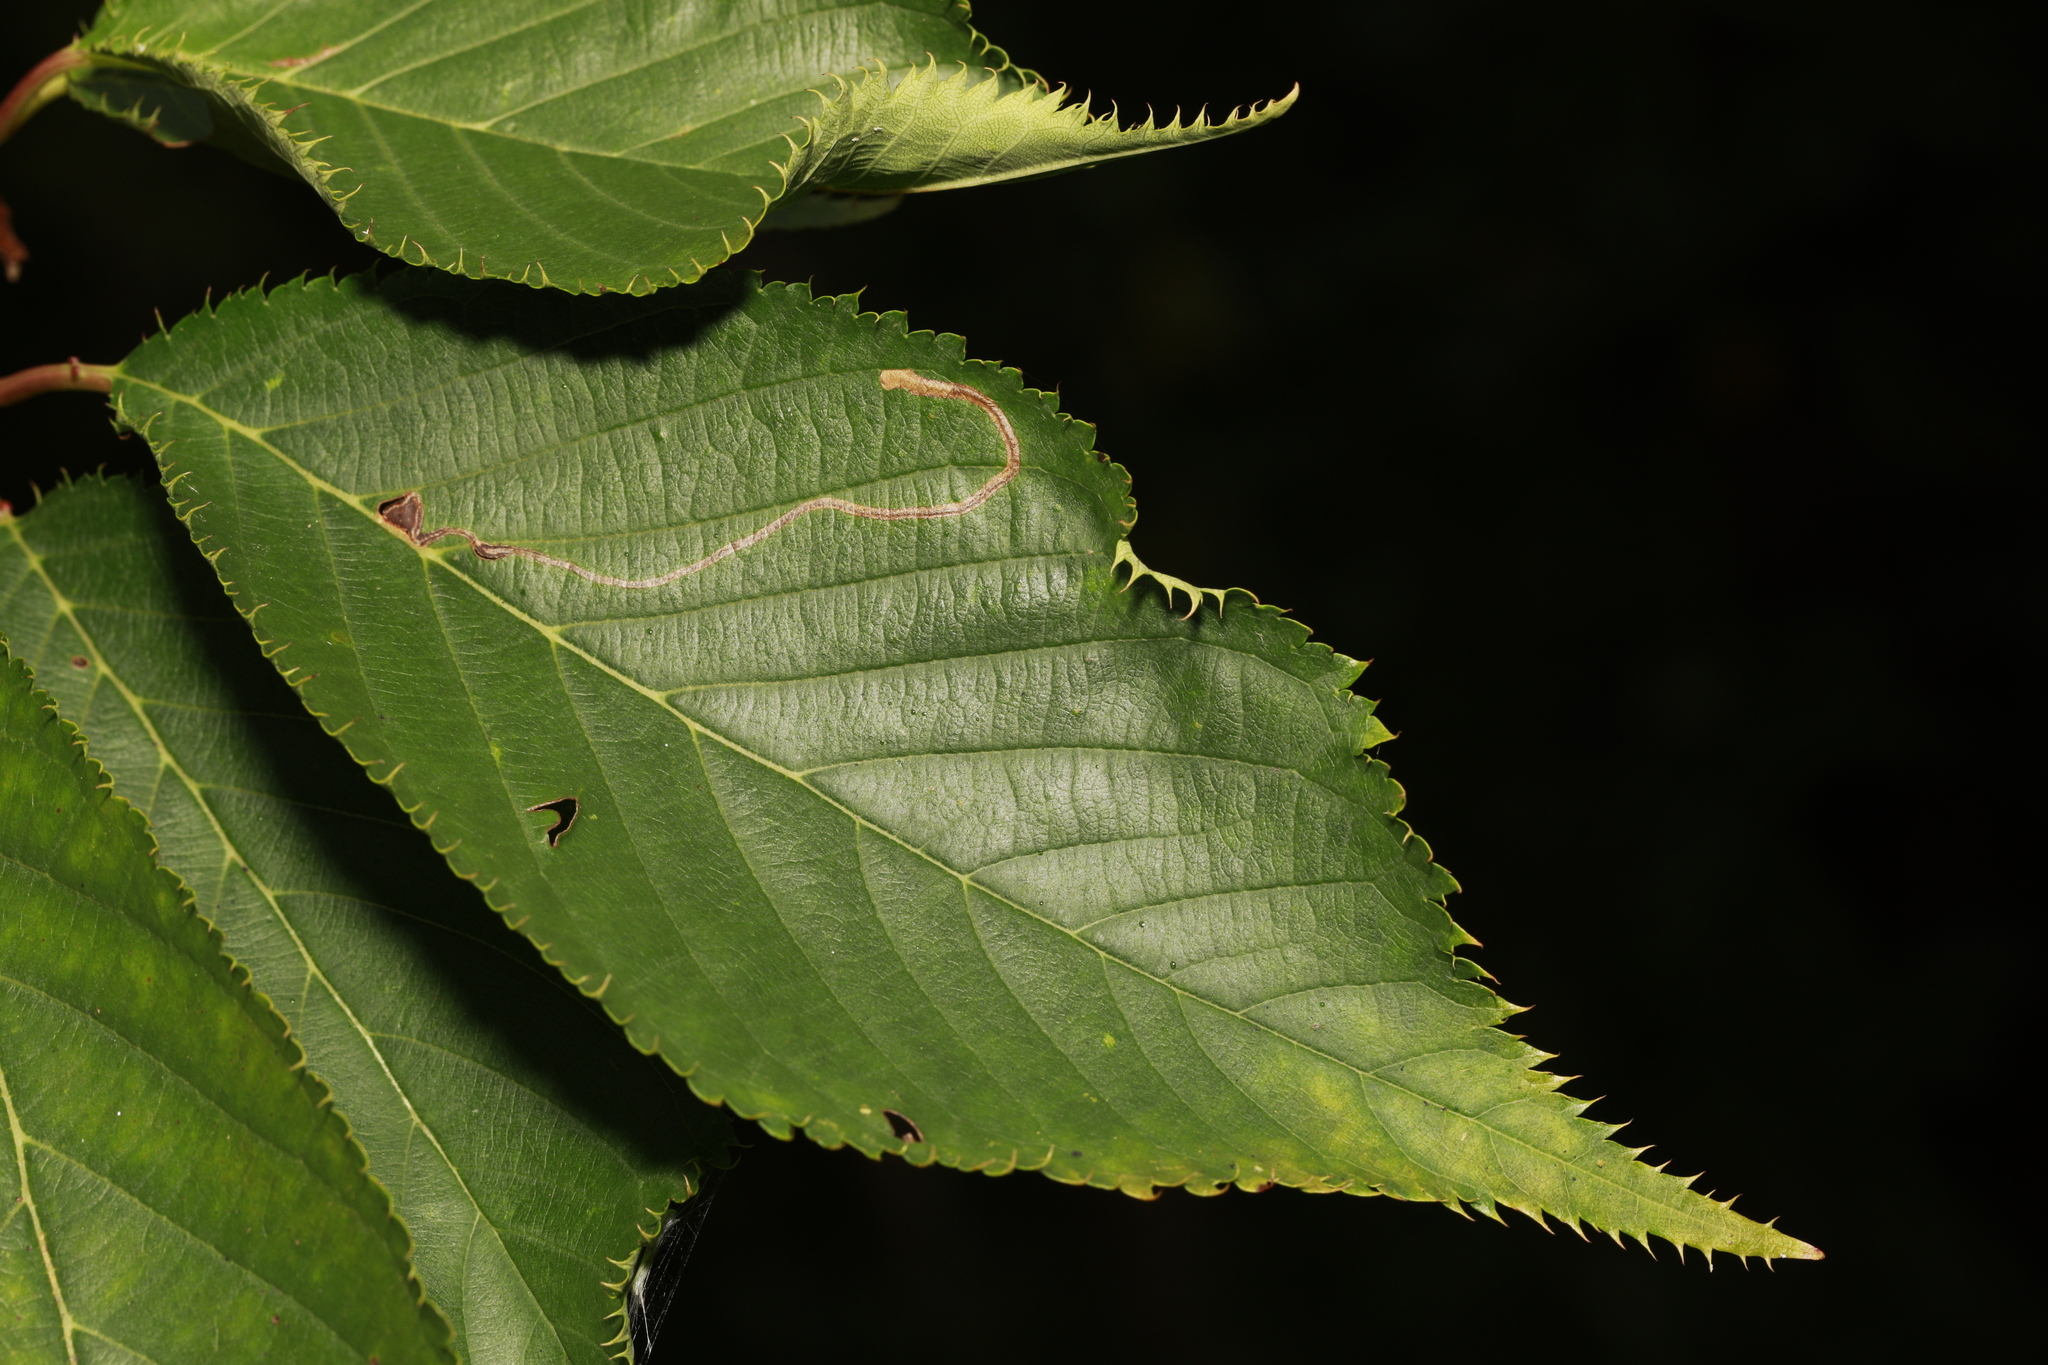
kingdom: Animalia
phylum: Arthropoda
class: Insecta
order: Lepidoptera
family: Lyonetiidae
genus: Lyonetia
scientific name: Lyonetia clerkella
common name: Apple leaf miner
